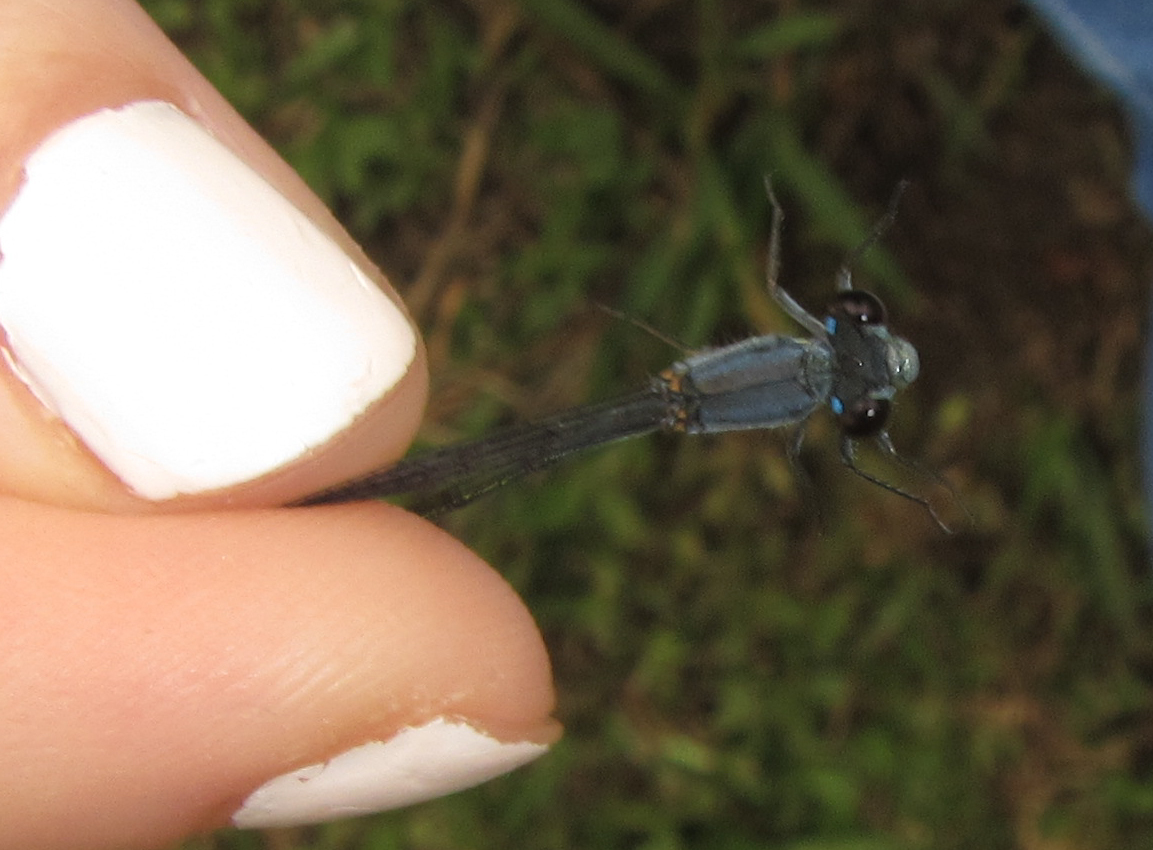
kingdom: Animalia
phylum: Arthropoda
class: Insecta
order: Odonata
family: Coenagrionidae
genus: Pseudagrion
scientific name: Pseudagrion salisburyense
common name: Slate sprite
